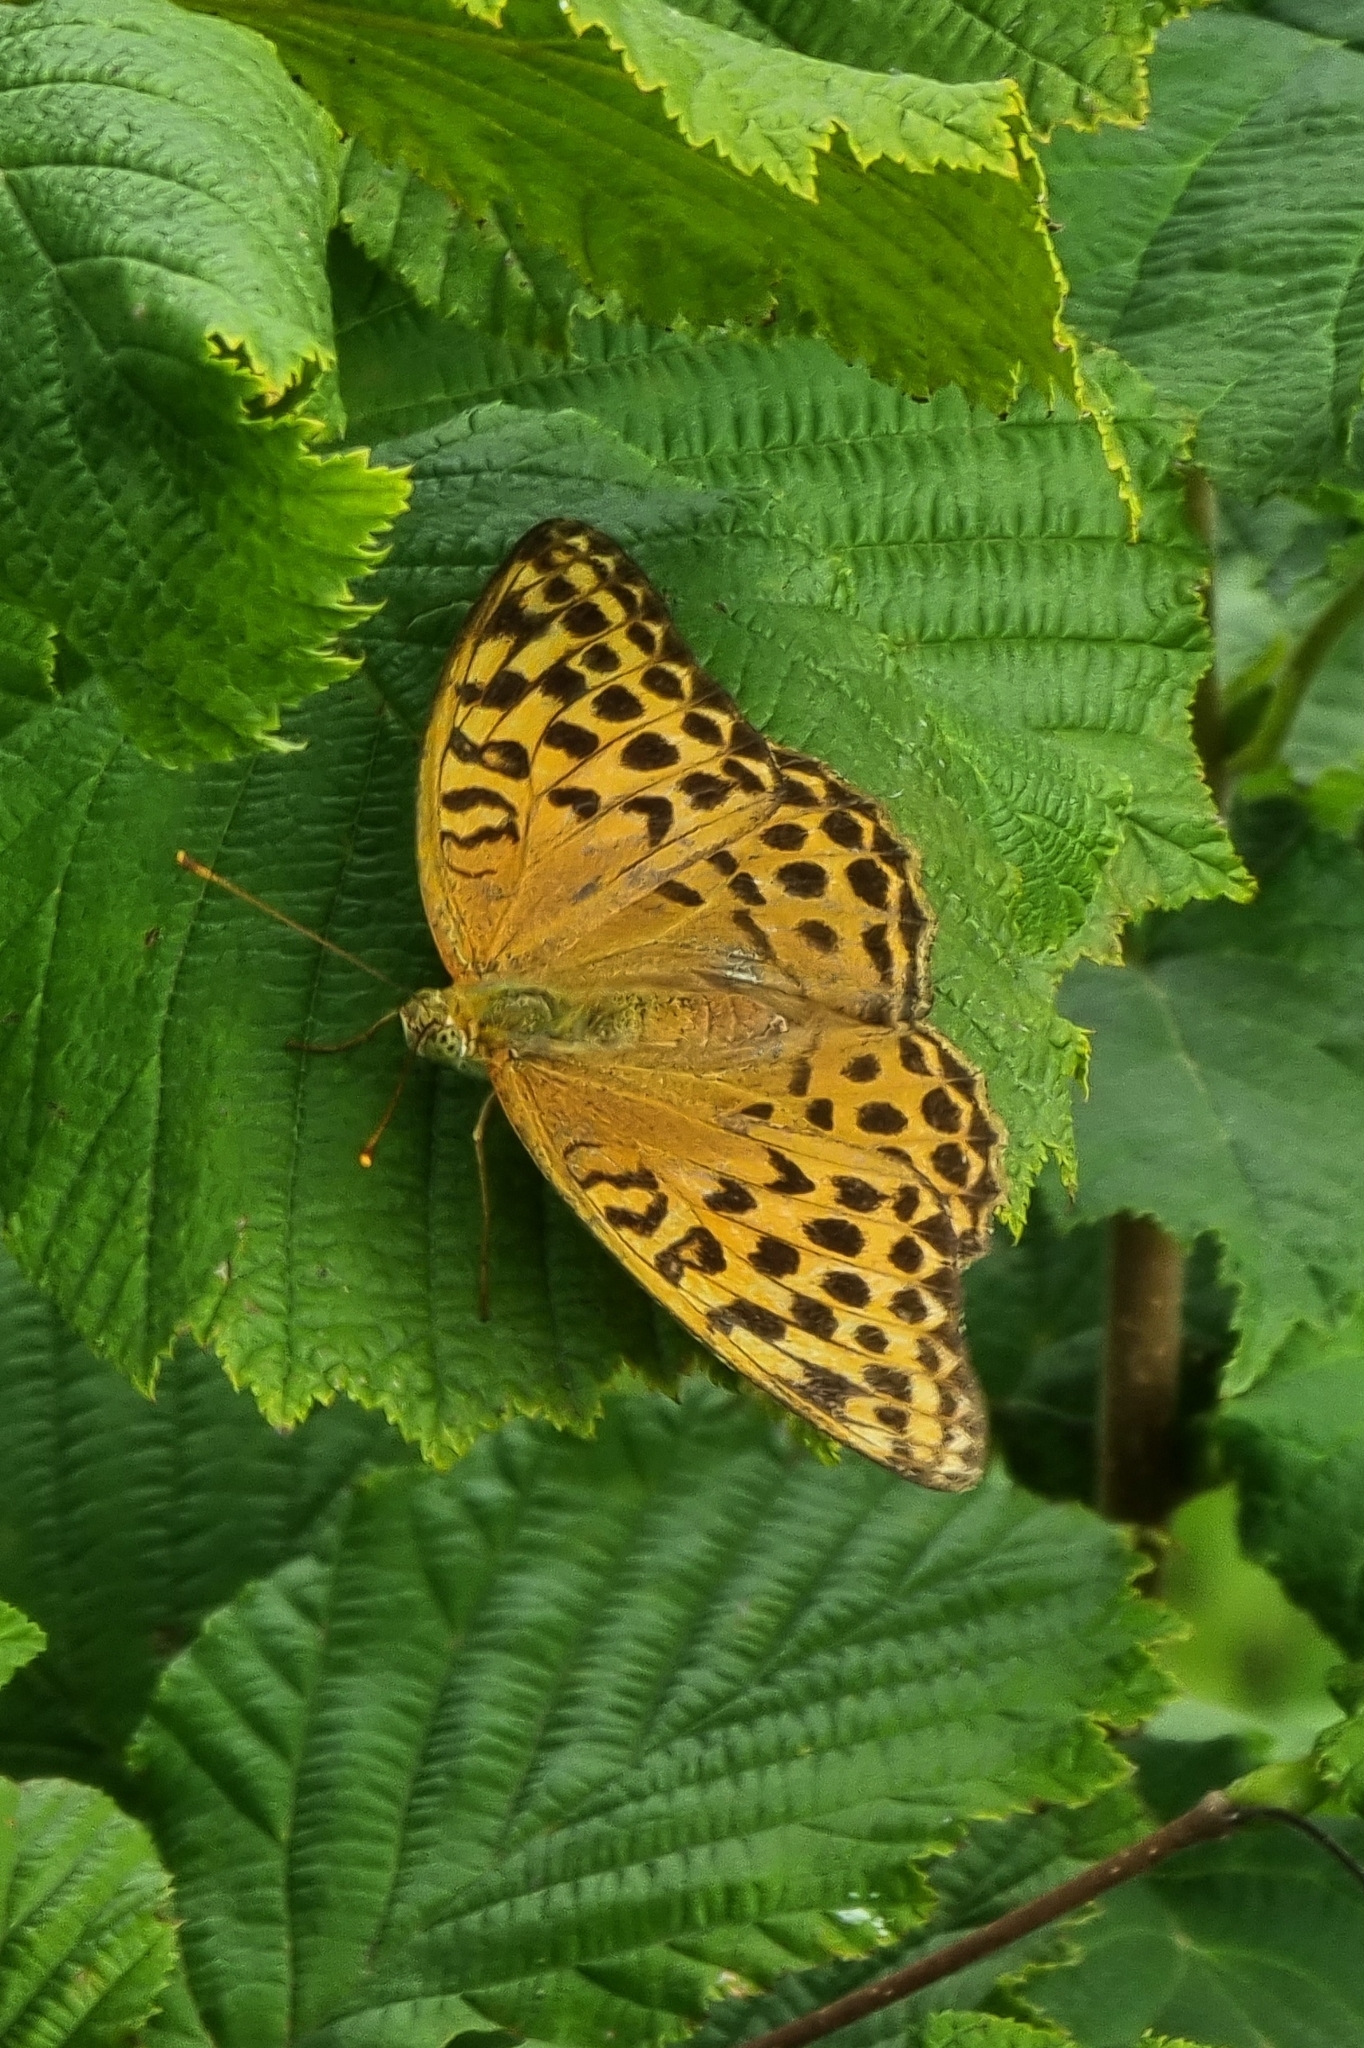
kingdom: Animalia
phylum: Arthropoda
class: Insecta
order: Lepidoptera
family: Nymphalidae
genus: Argynnis
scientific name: Argynnis paphia
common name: Silver-washed fritillary
